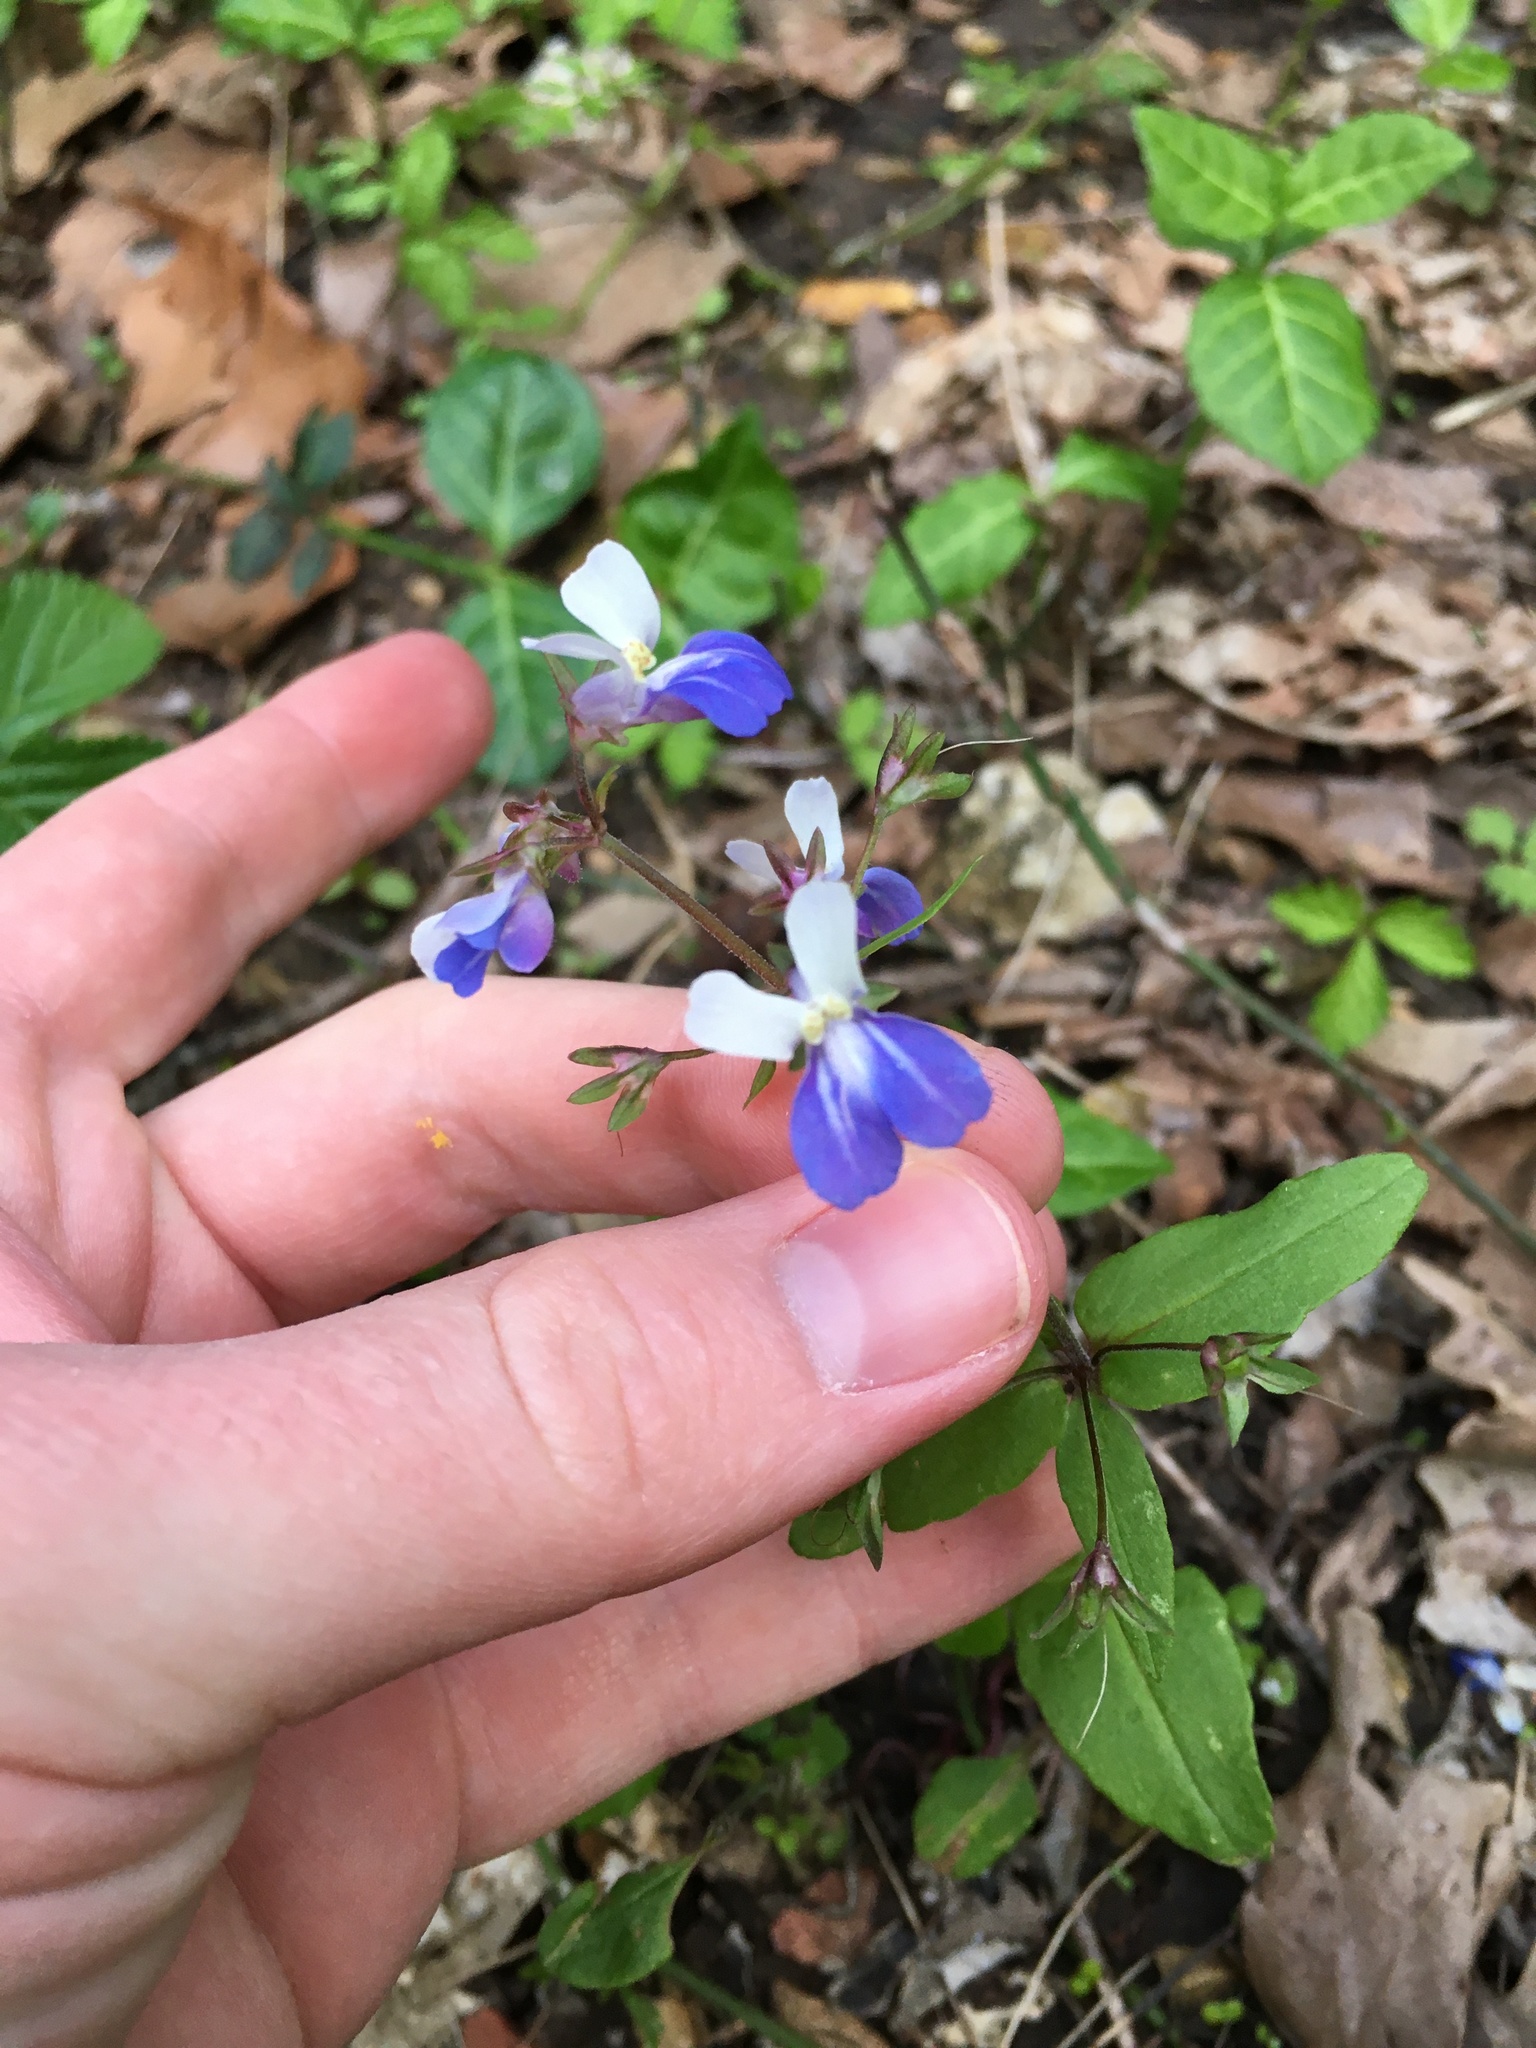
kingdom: Plantae
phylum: Tracheophyta
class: Magnoliopsida
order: Lamiales
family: Plantaginaceae
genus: Collinsia
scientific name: Collinsia verna
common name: Broad-leaved collinsia
